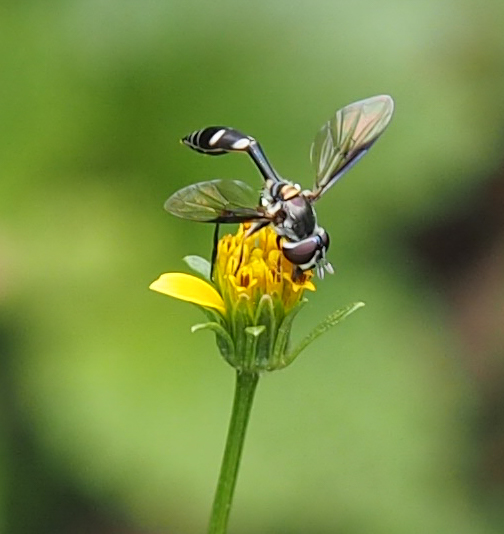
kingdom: Animalia
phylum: Arthropoda
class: Insecta
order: Diptera
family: Syrphidae
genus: Dioprosopa
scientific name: Dioprosopa clavatus
